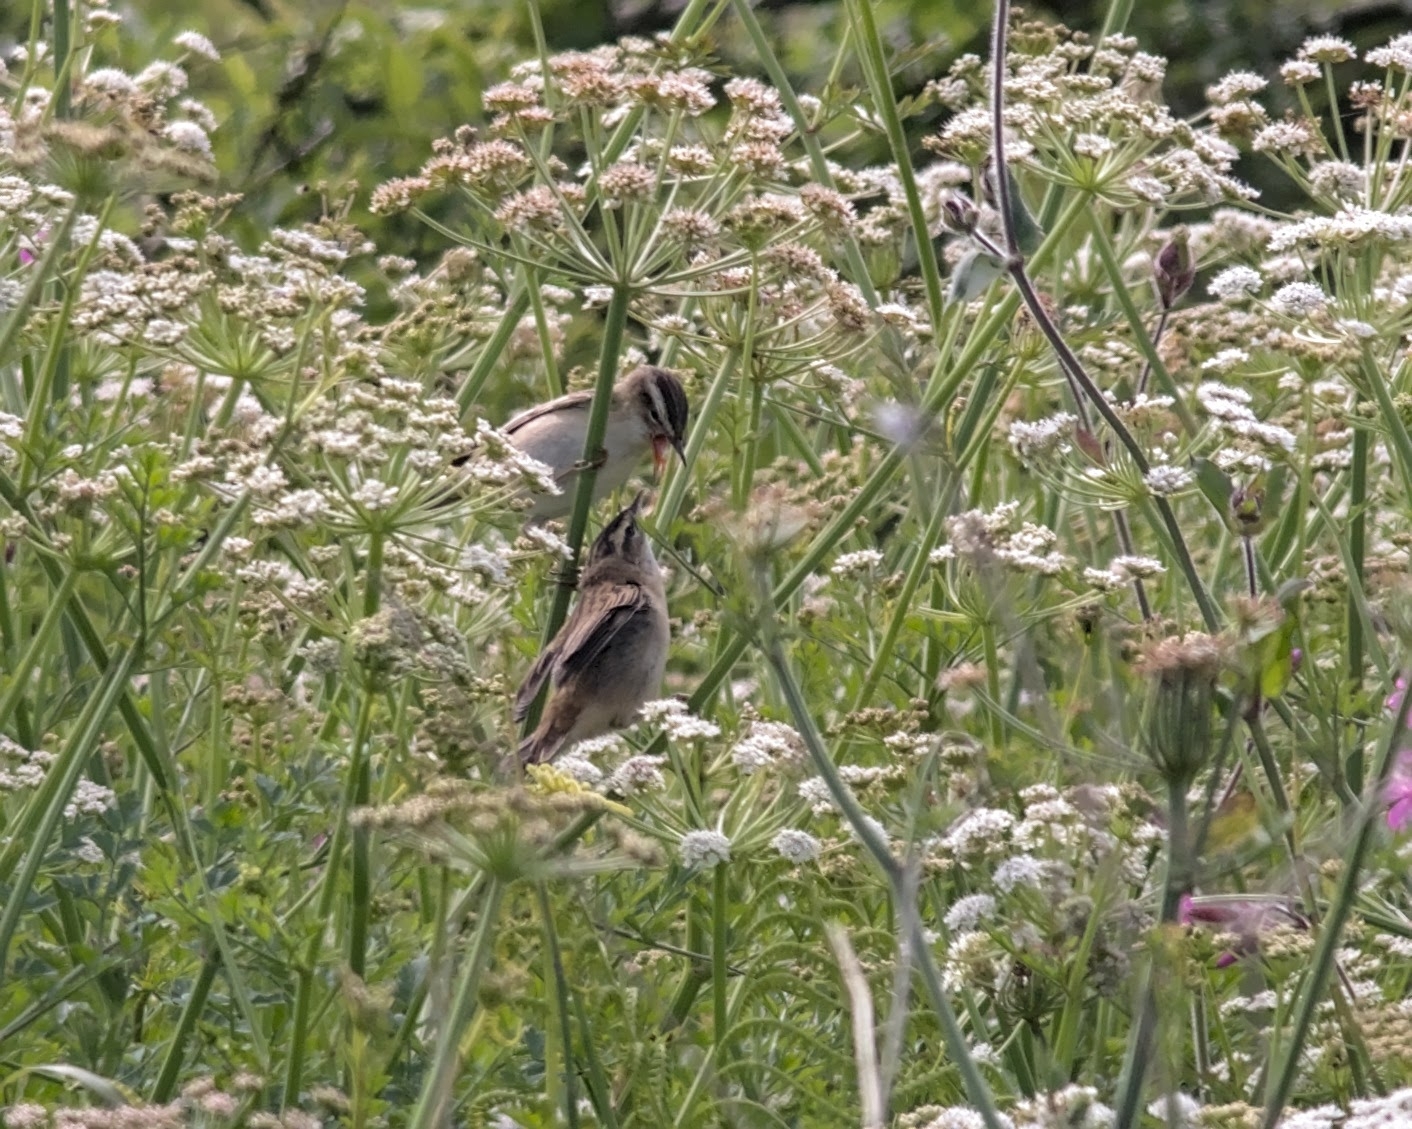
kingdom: Animalia
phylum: Chordata
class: Aves
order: Passeriformes
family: Acrocephalidae
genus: Acrocephalus
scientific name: Acrocephalus schoenobaenus
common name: Sedge warbler
